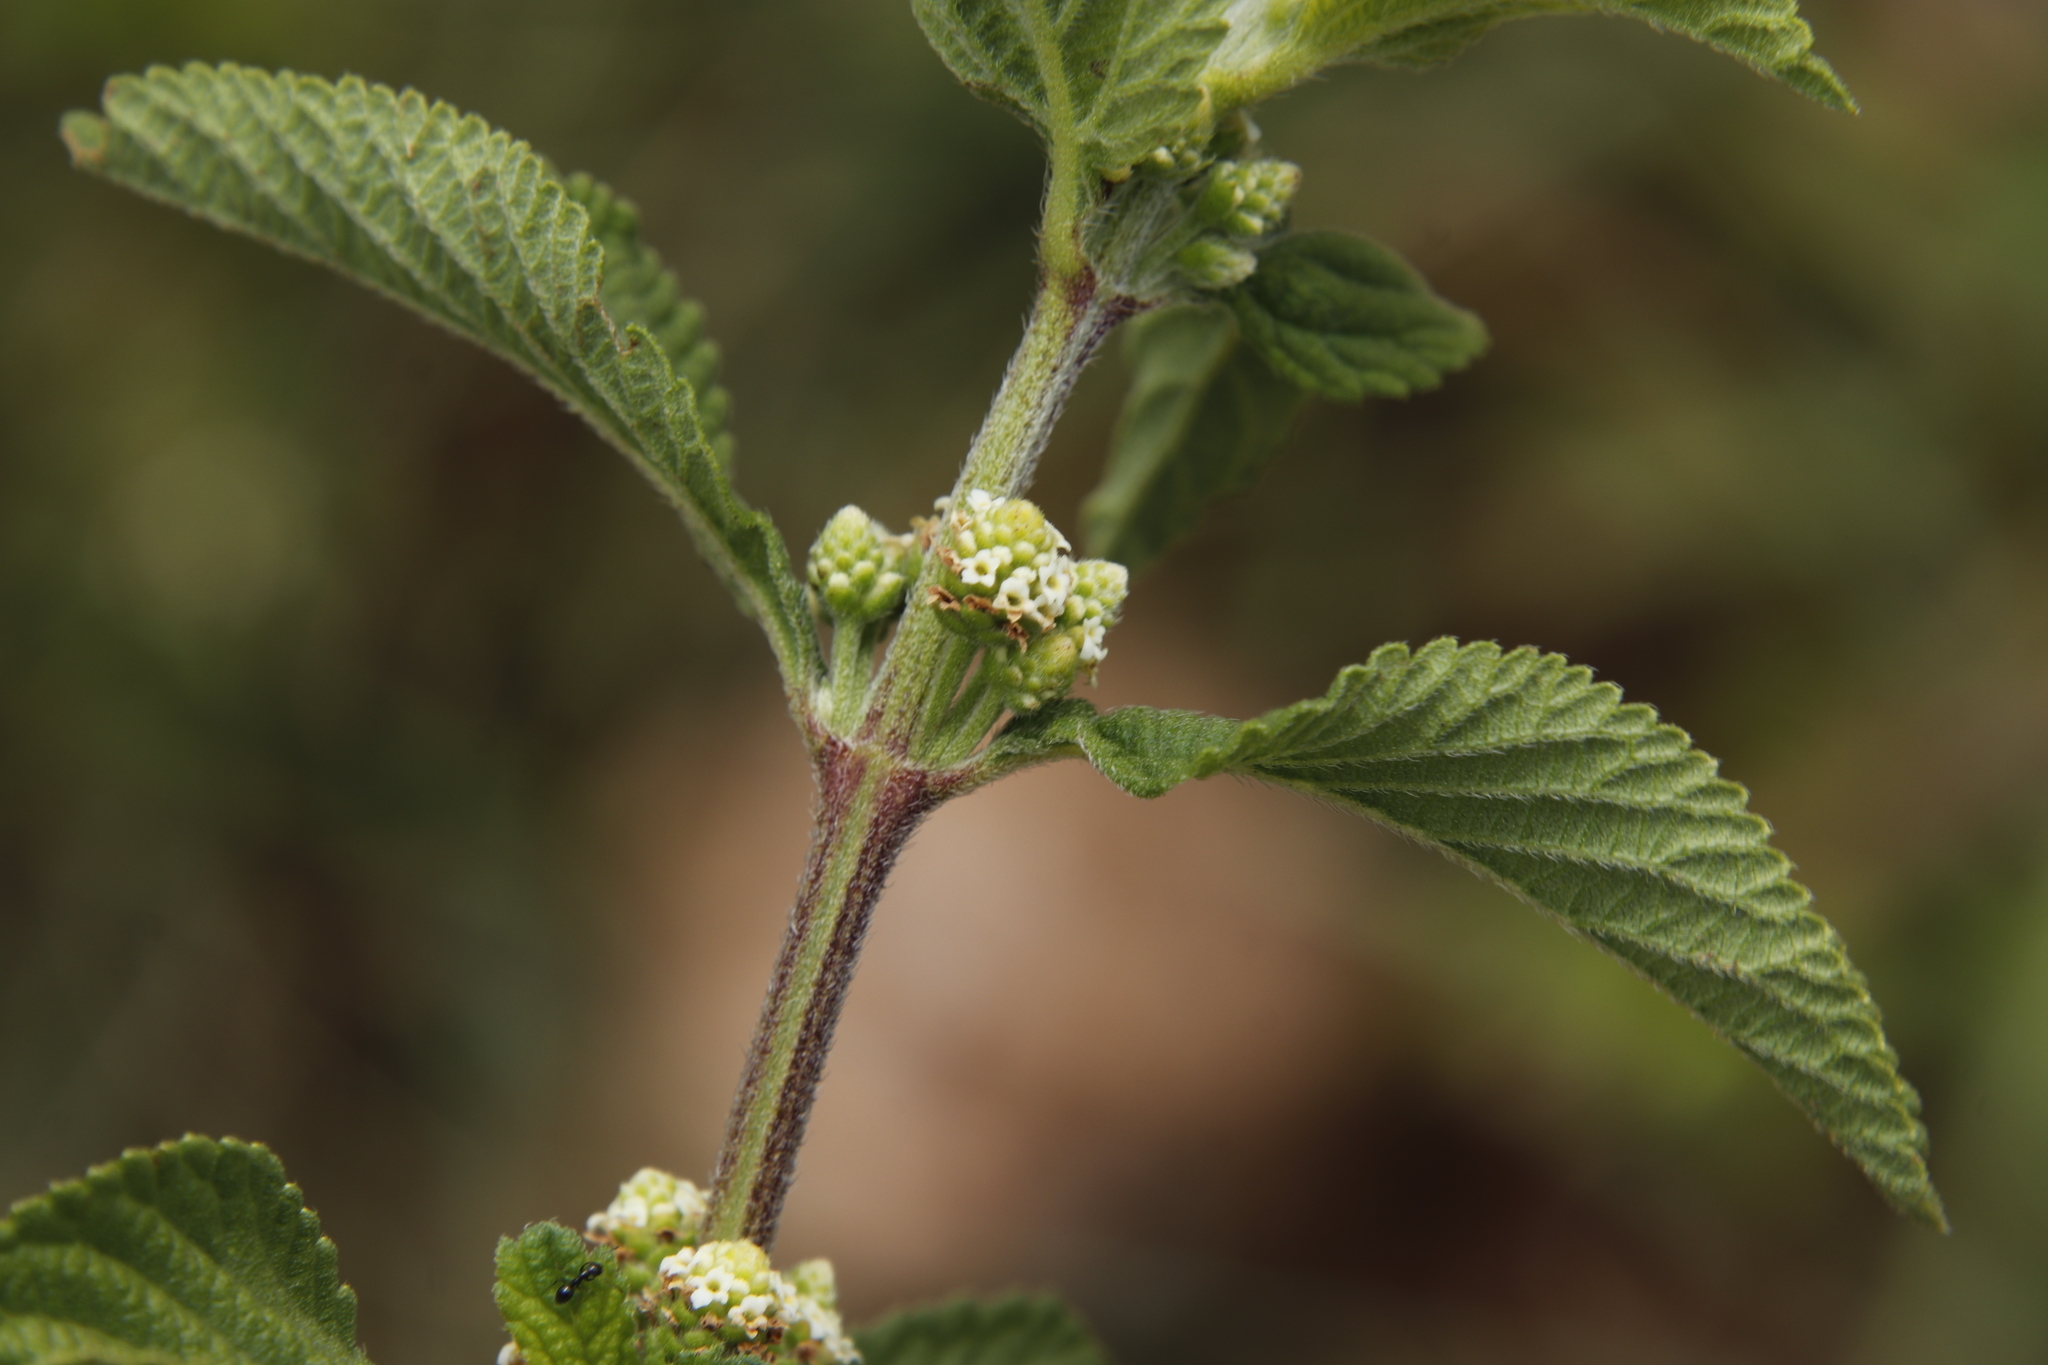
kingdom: Plantae
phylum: Tracheophyta
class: Magnoliopsida
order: Lamiales
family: Verbenaceae
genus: Lippia
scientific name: Lippia javanica
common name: Lemonbush
